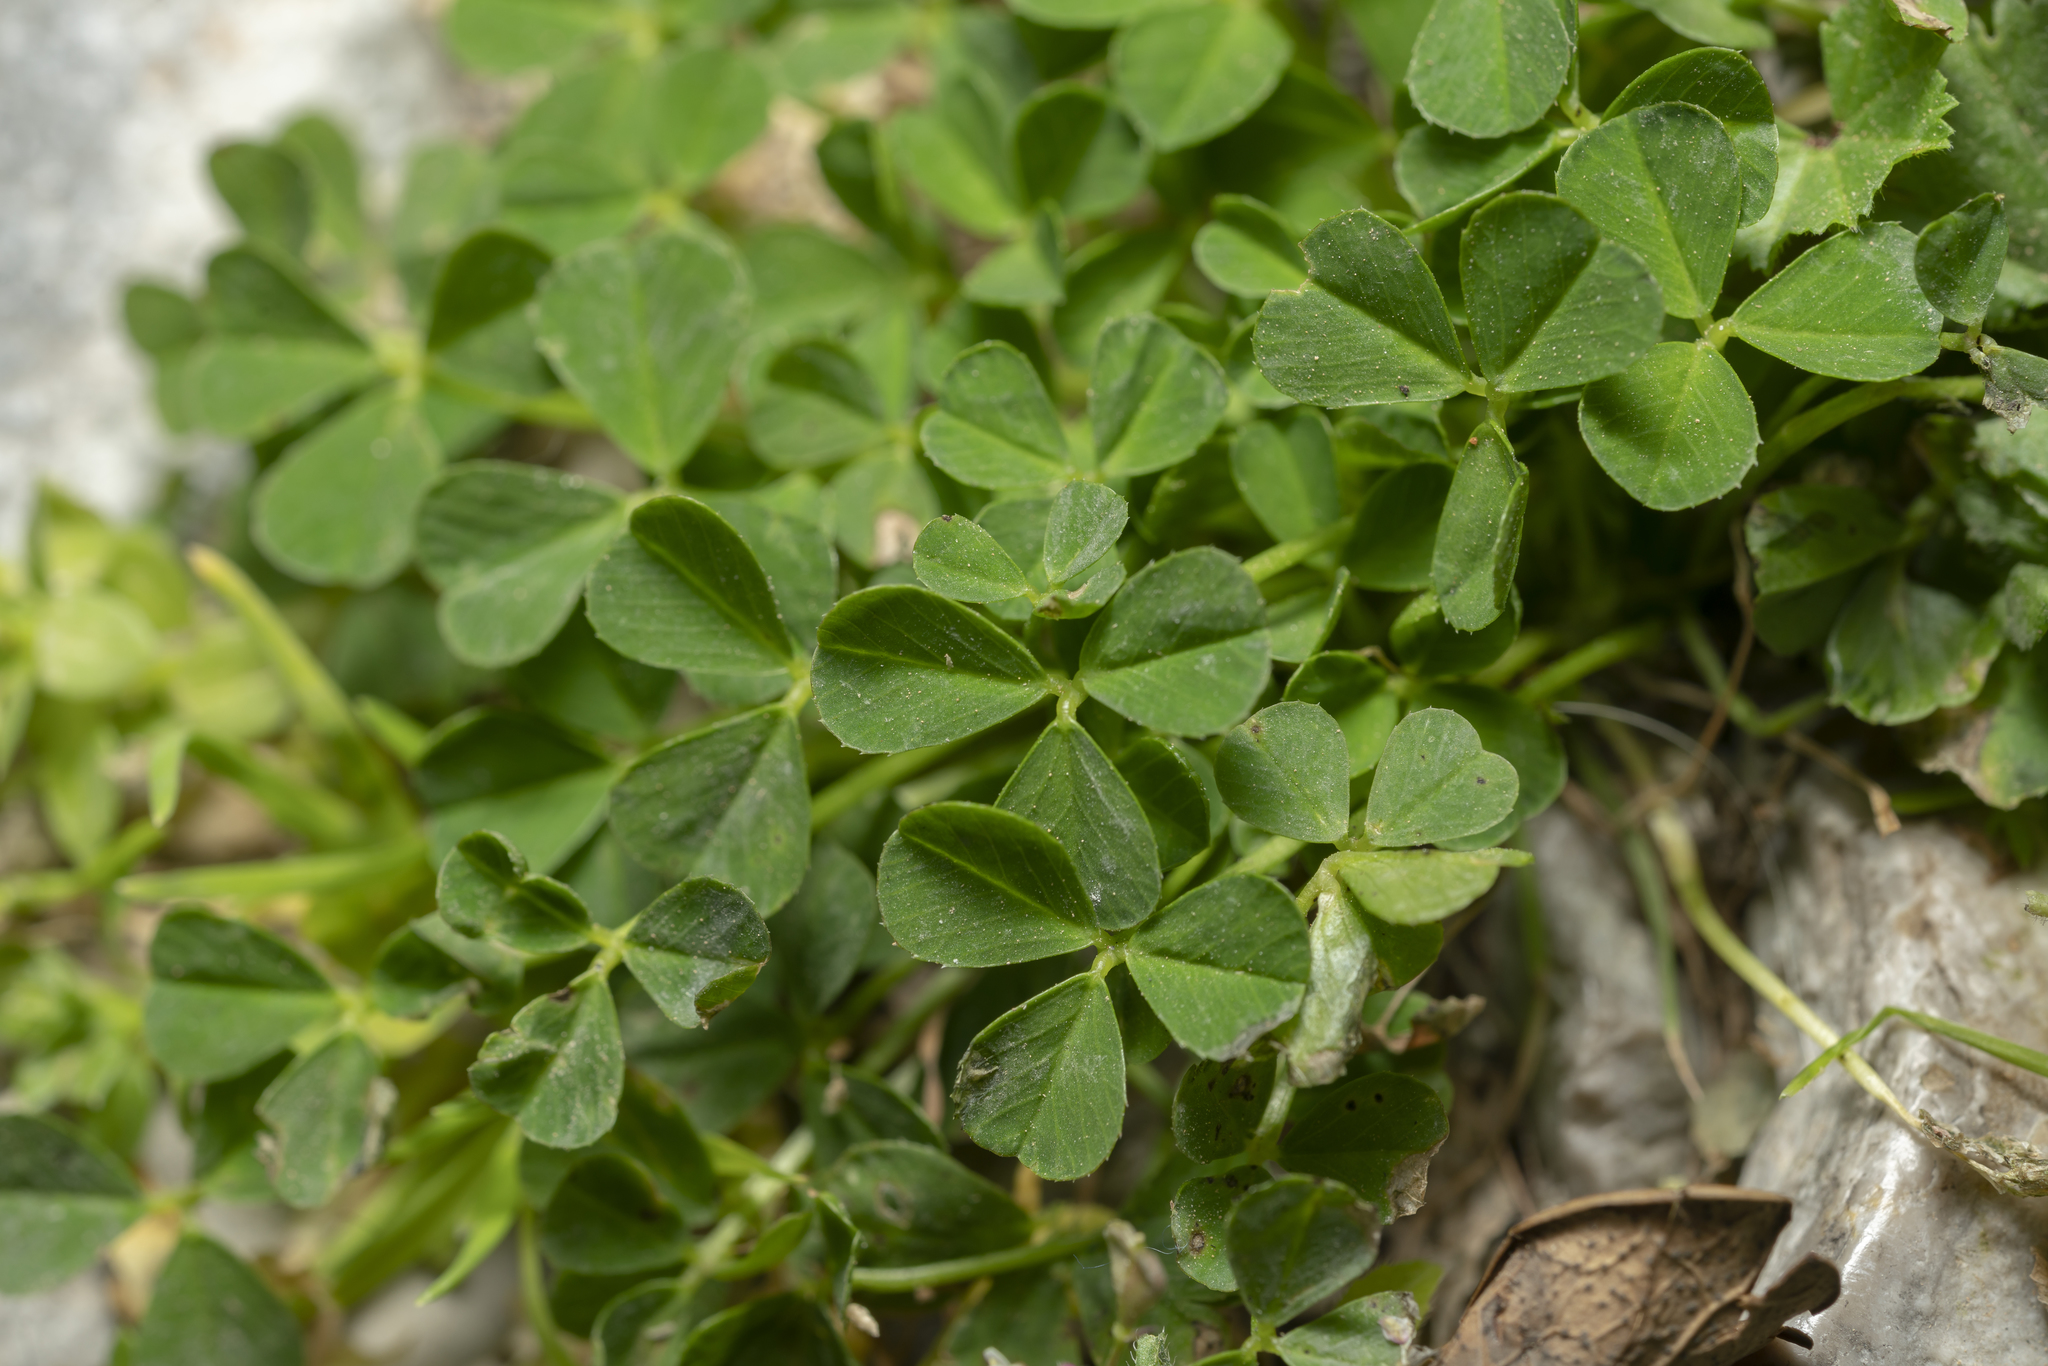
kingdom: Plantae
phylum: Tracheophyta
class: Magnoliopsida
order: Fabales
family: Fabaceae
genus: Trifolium
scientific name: Trifolium
